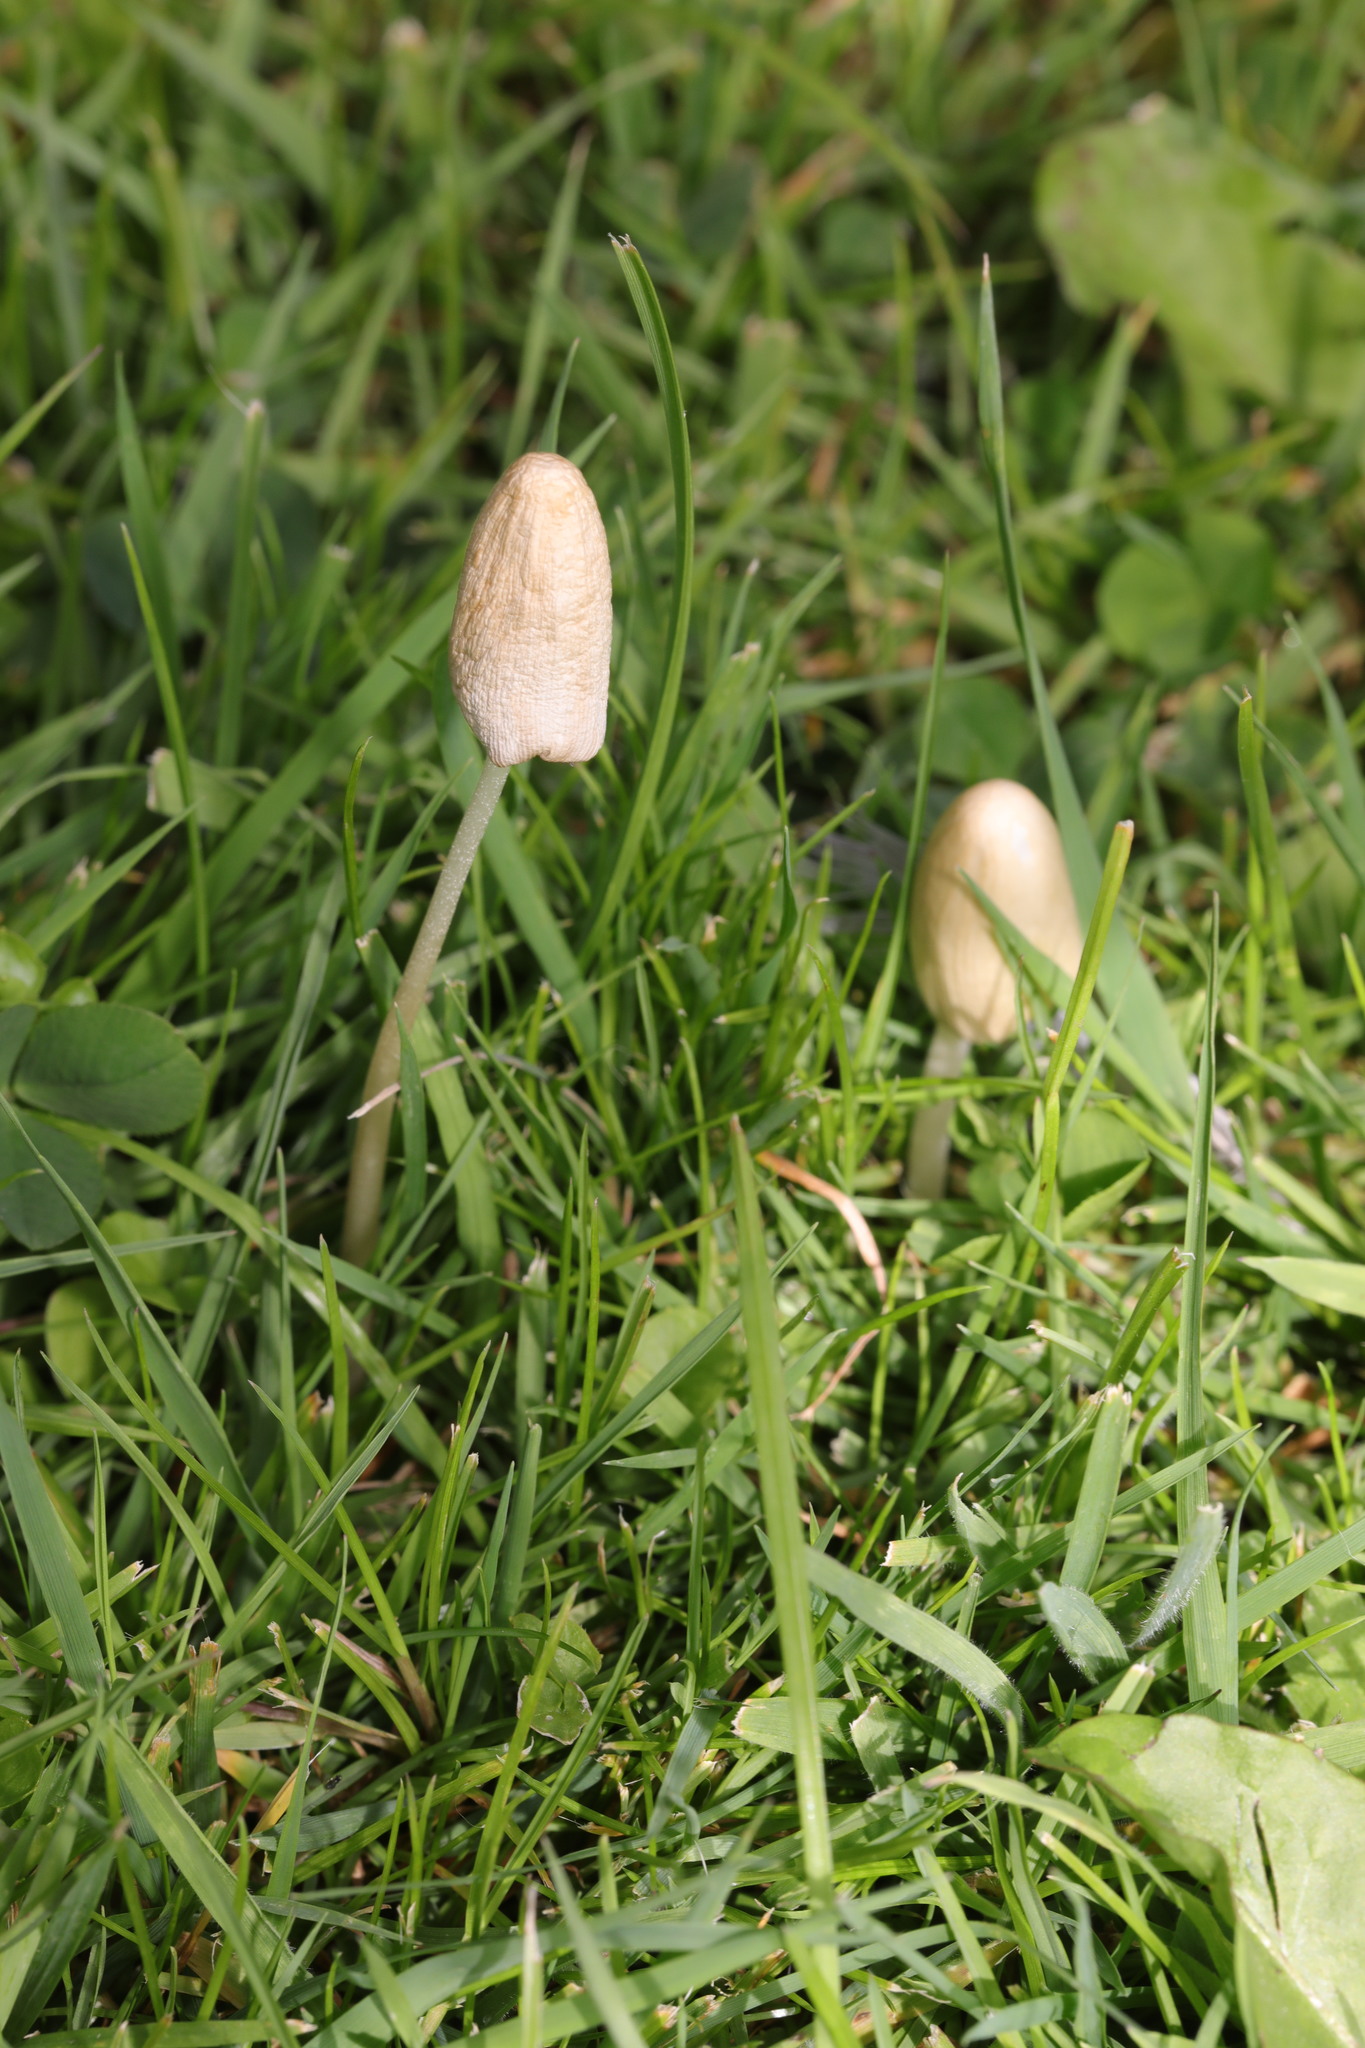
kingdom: Fungi
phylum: Basidiomycota
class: Agaricomycetes
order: Agaricales
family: Bolbitiaceae
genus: Conocybe
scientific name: Conocybe apala
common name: Milky conecap
